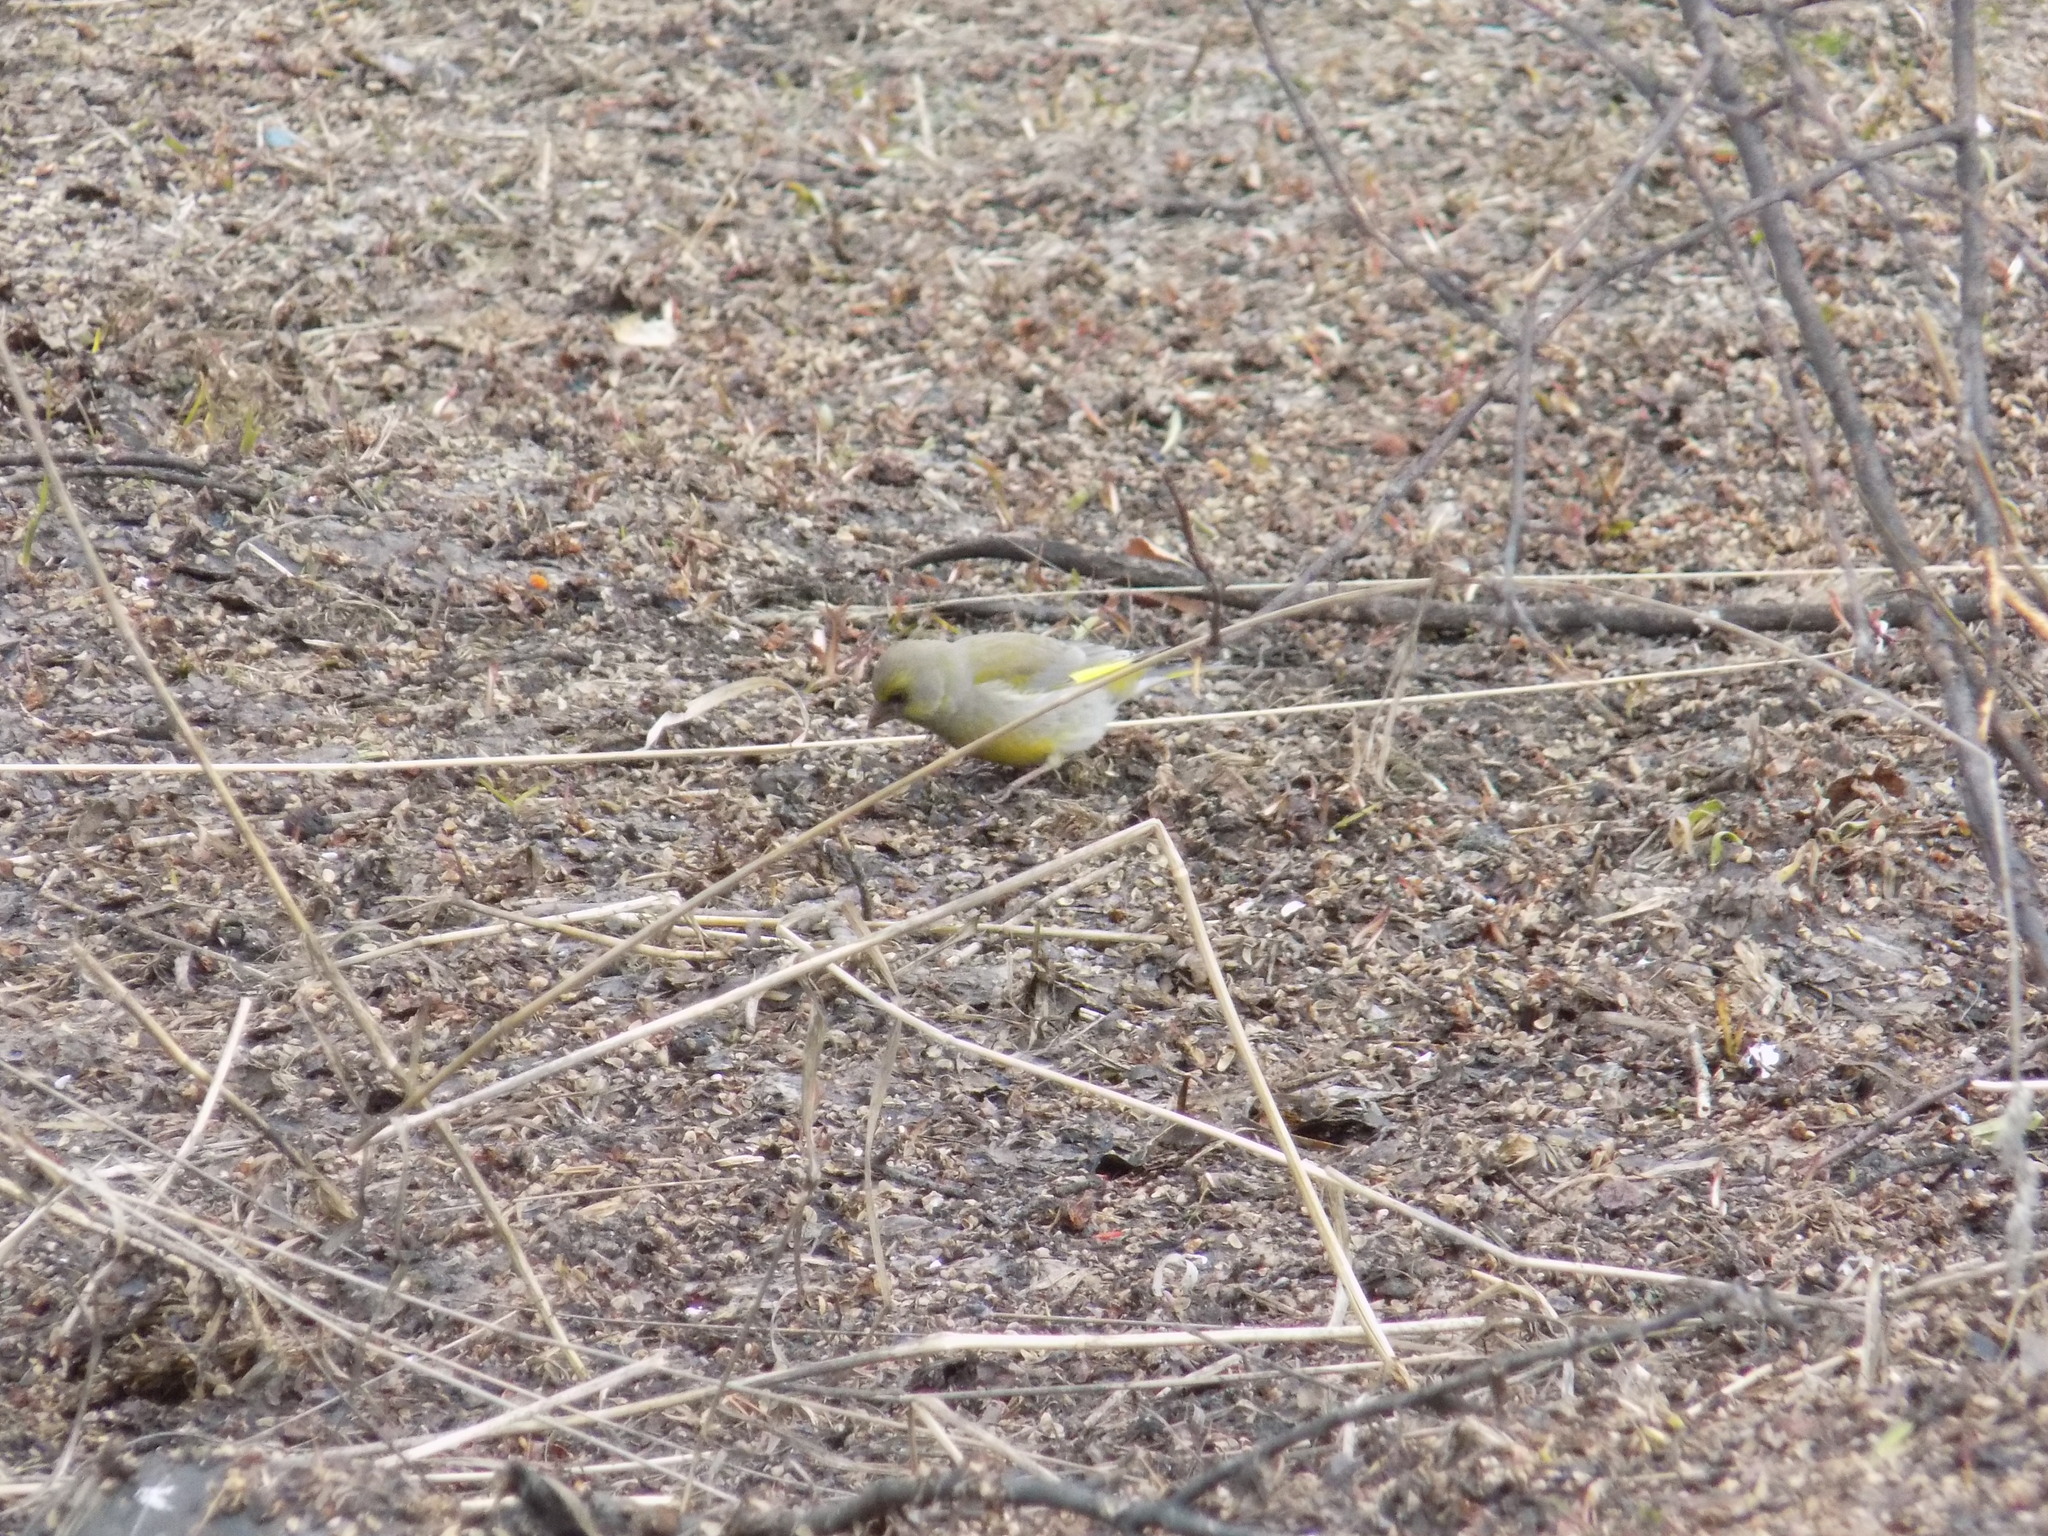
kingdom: Plantae
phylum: Tracheophyta
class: Liliopsida
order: Poales
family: Poaceae
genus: Chloris
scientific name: Chloris chloris
